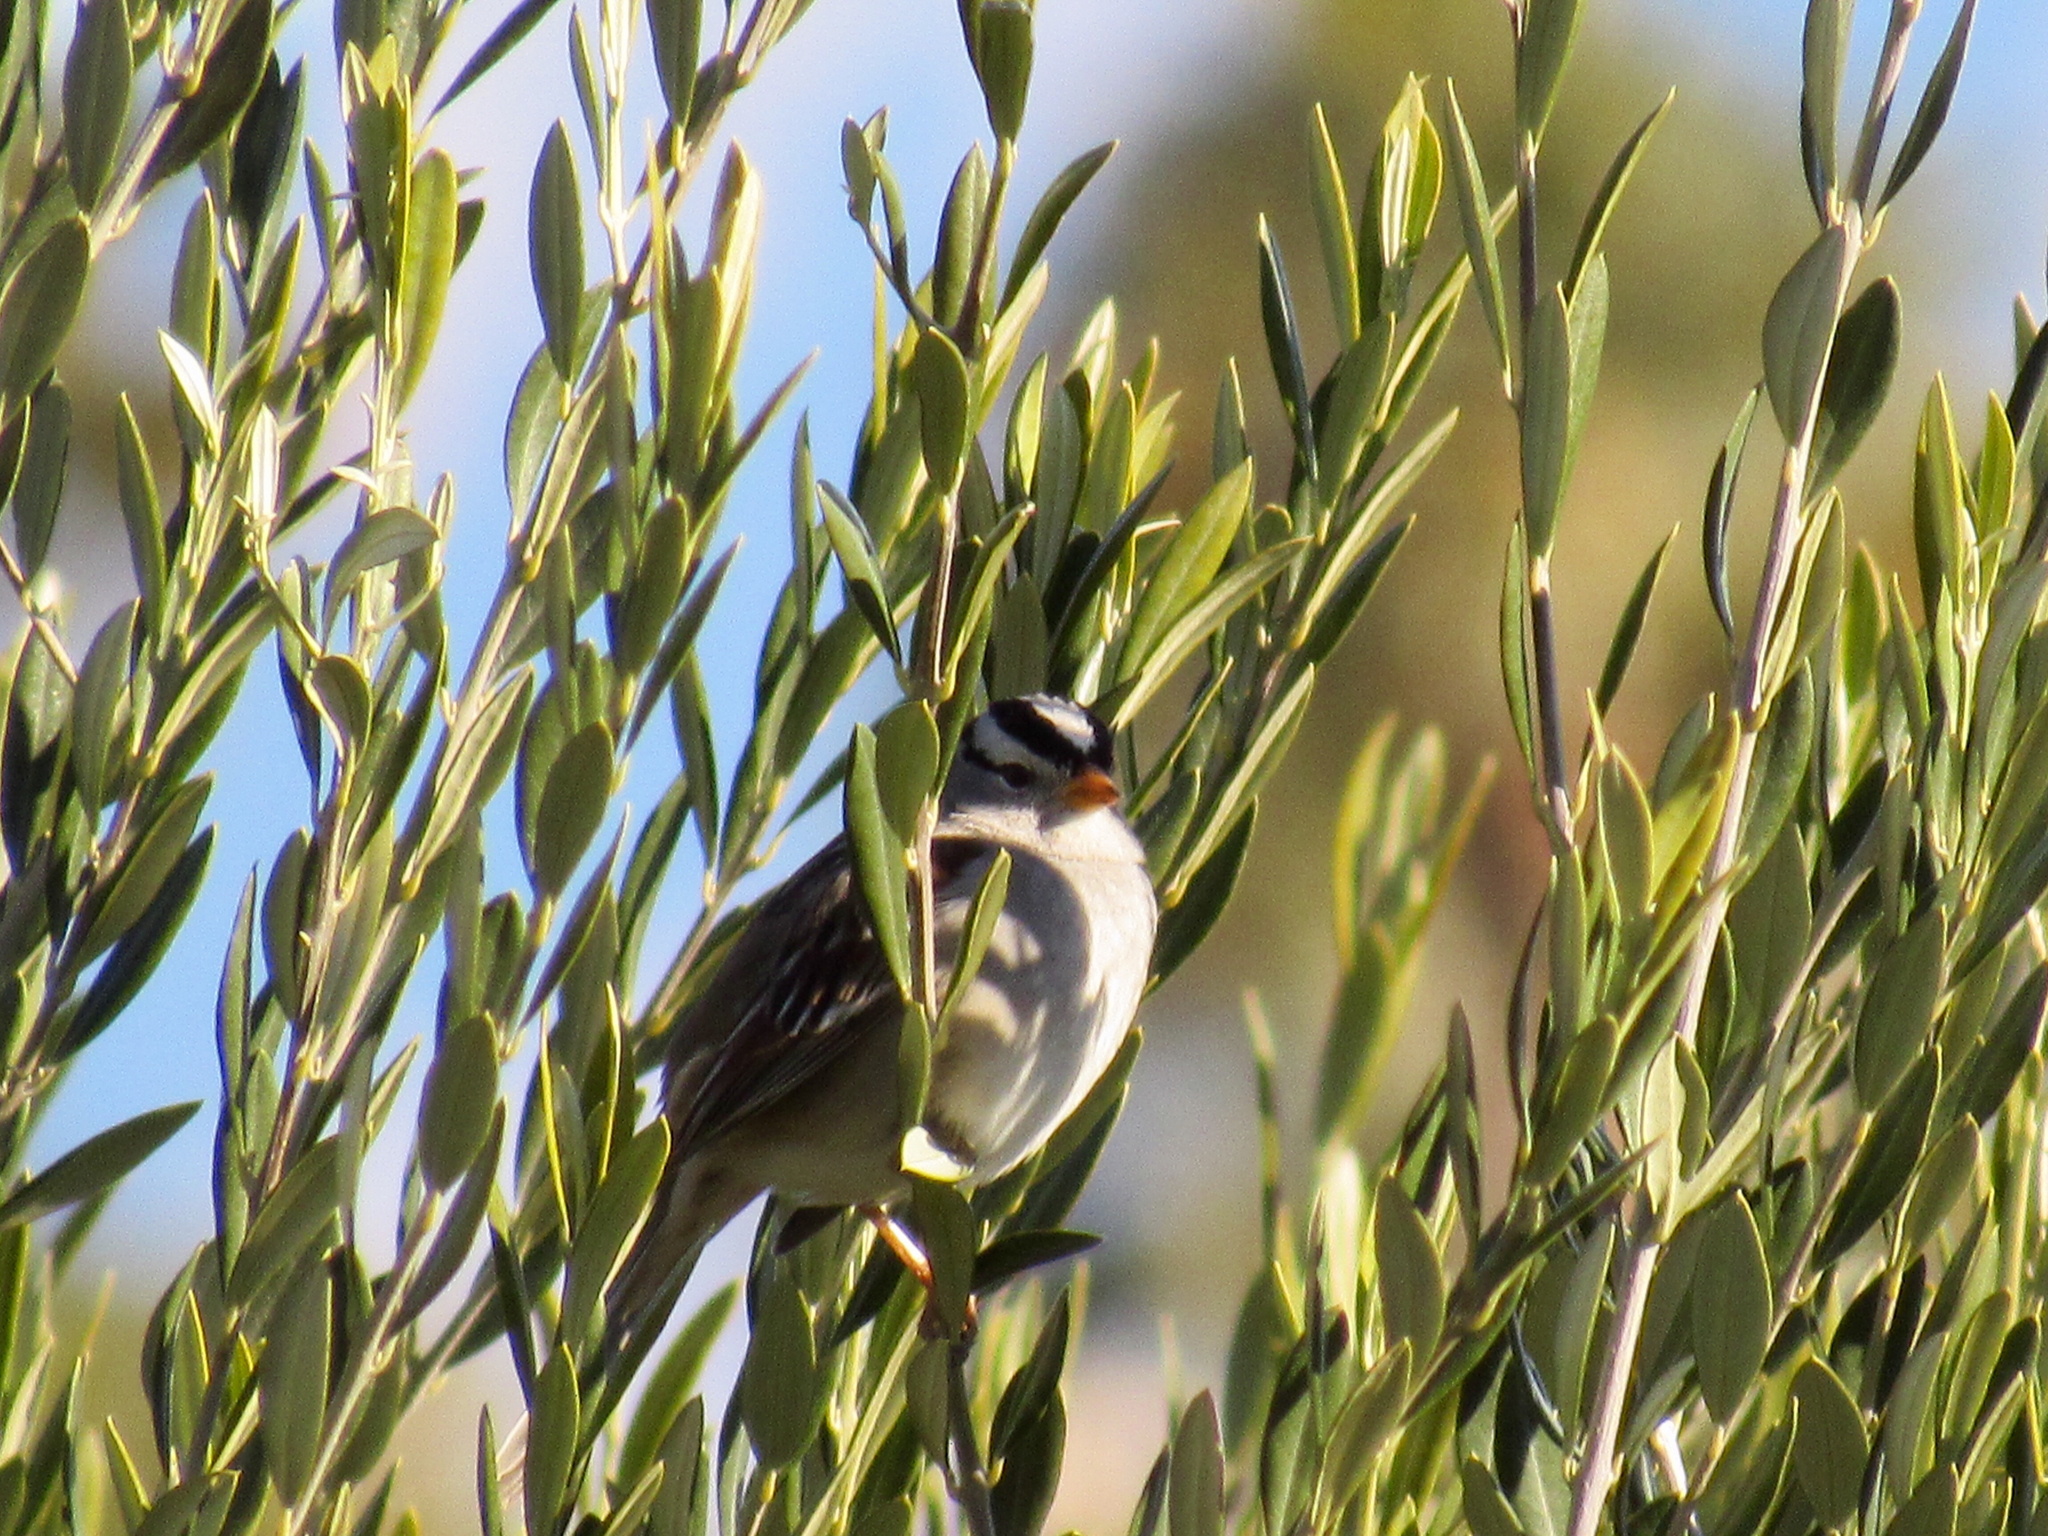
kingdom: Animalia
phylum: Chordata
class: Aves
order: Passeriformes
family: Passerellidae
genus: Zonotrichia
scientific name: Zonotrichia leucophrys
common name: White-crowned sparrow
